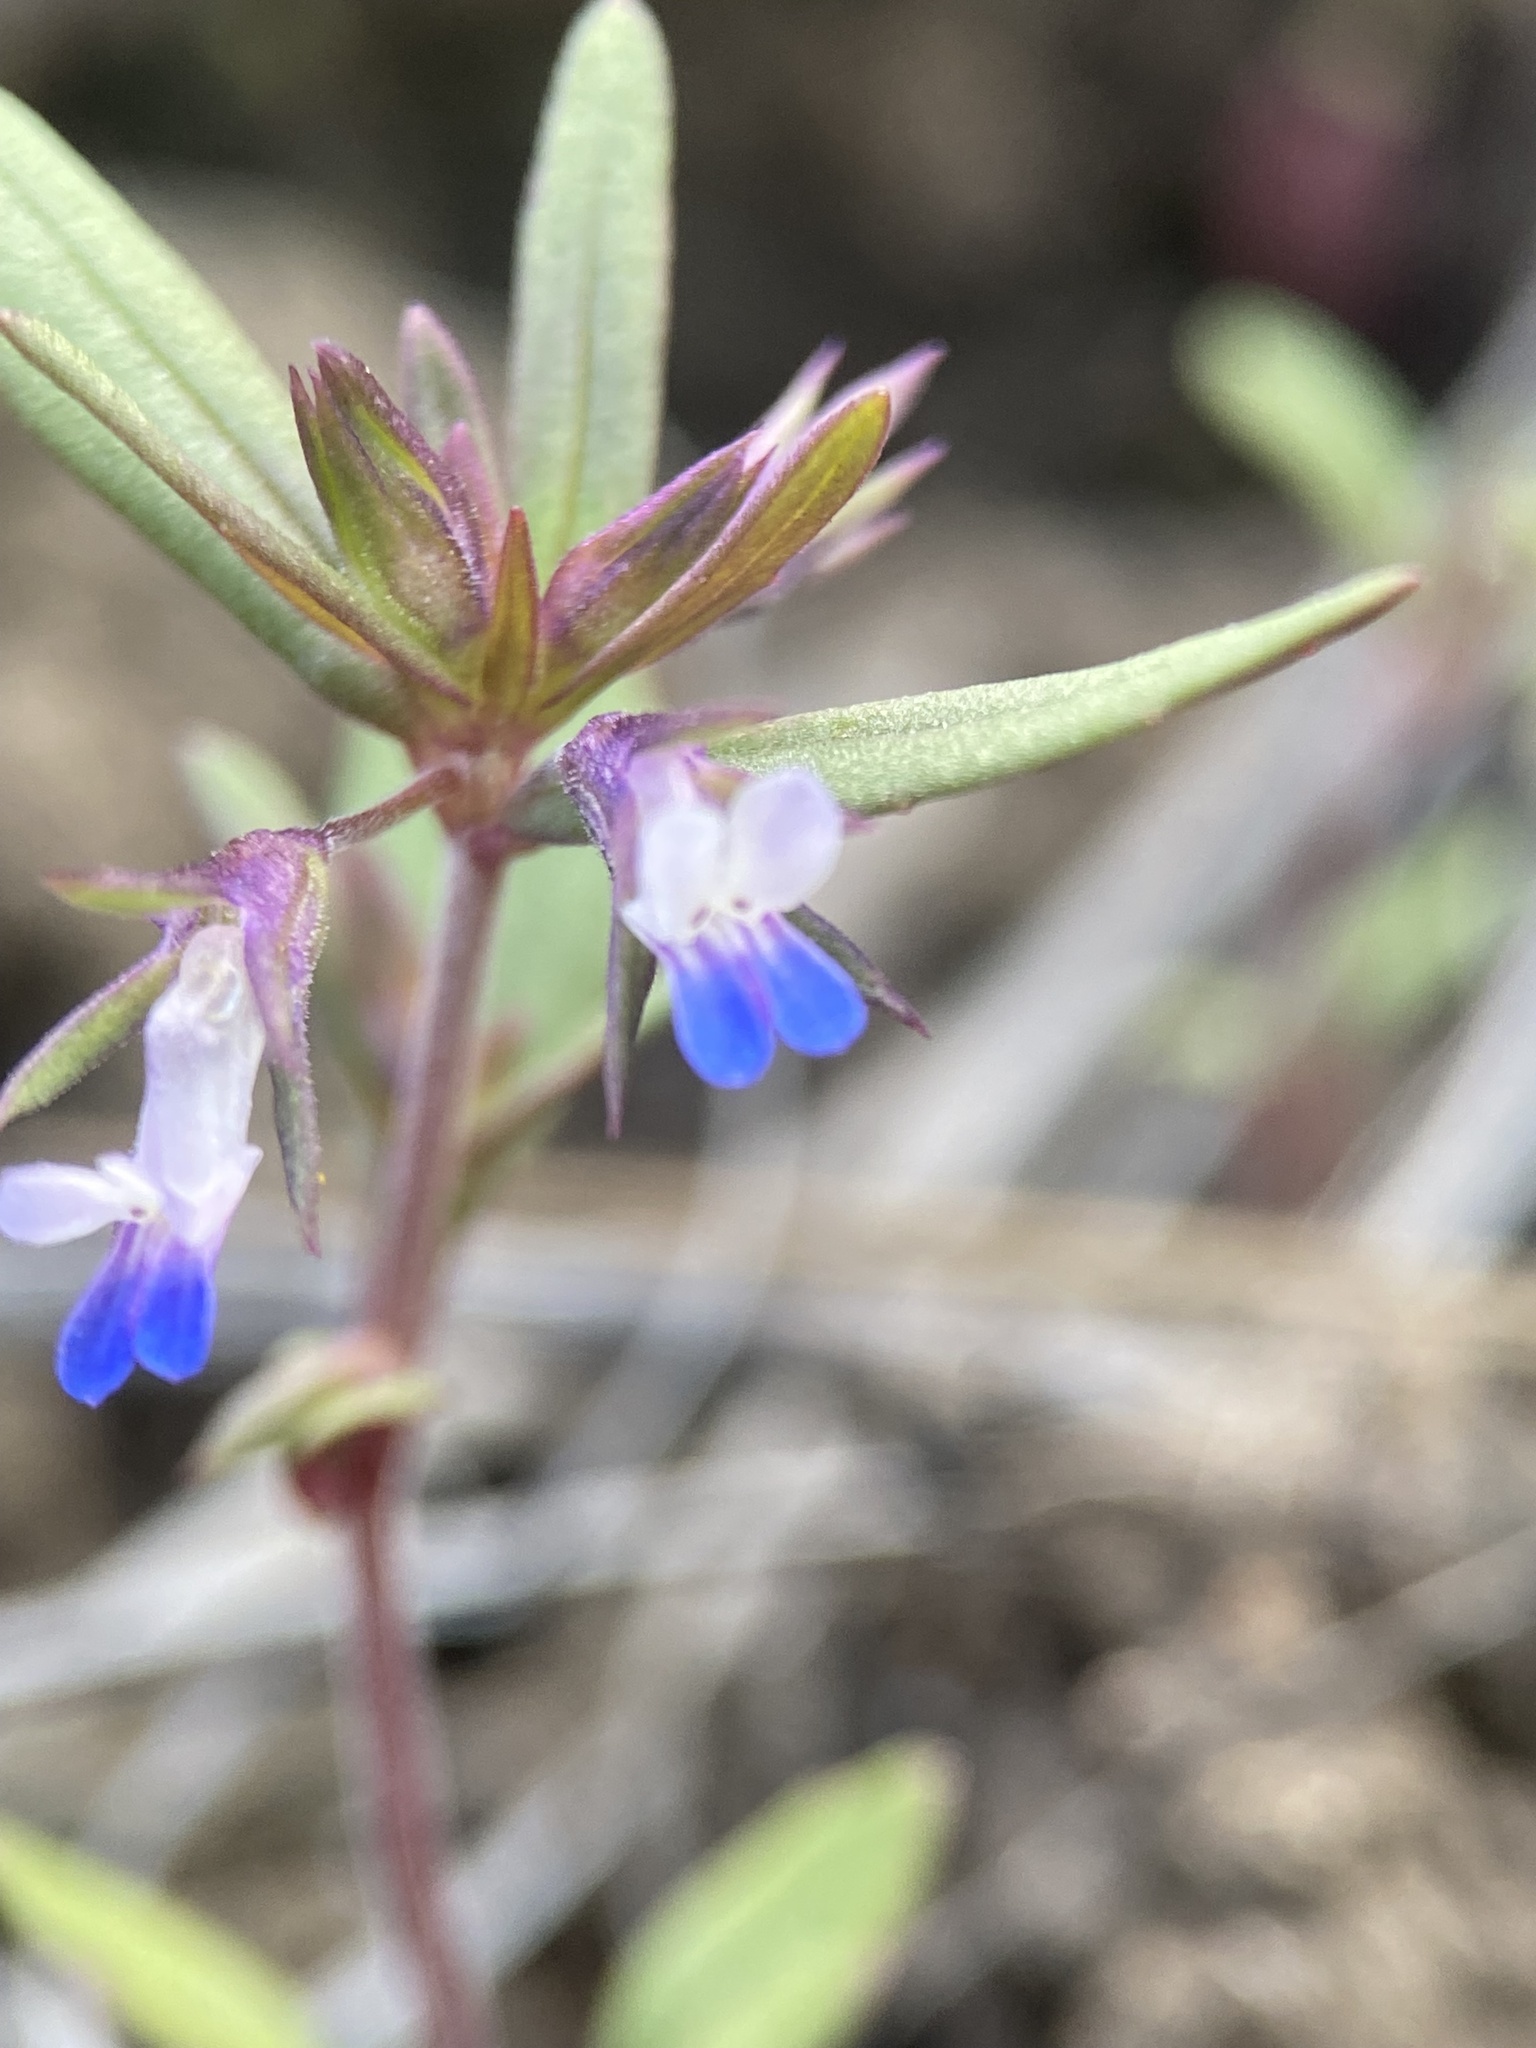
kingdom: Plantae
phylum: Tracheophyta
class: Magnoliopsida
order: Lamiales
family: Plantaginaceae
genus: Collinsia
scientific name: Collinsia parviflora
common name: Blue-lips
